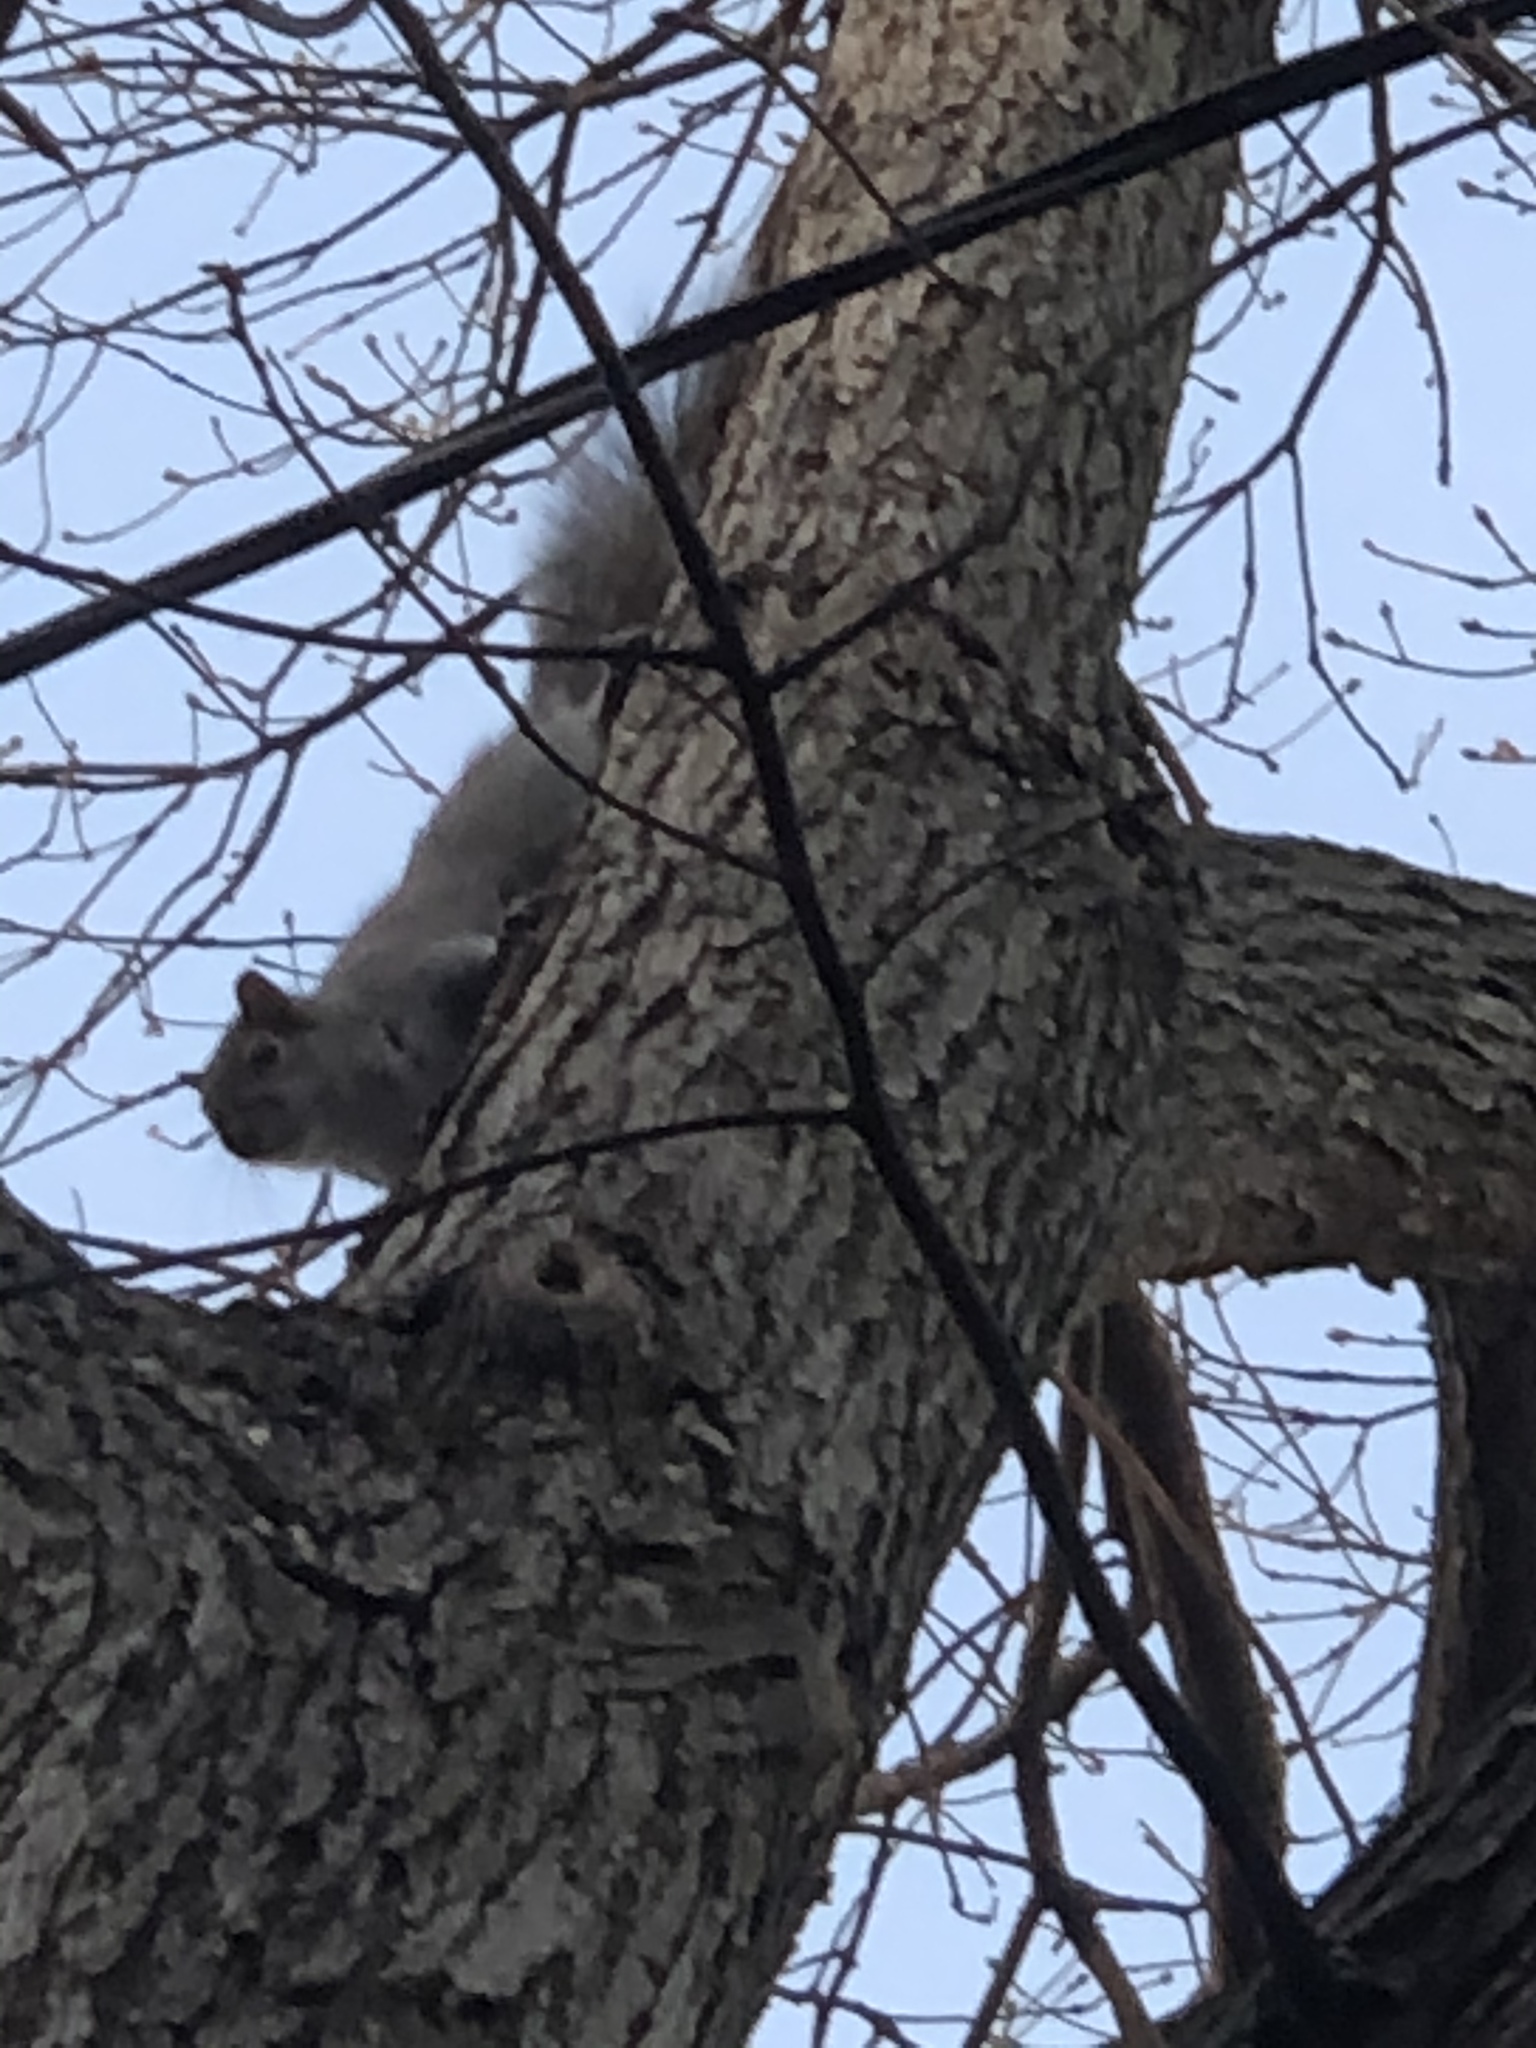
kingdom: Animalia
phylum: Chordata
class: Mammalia
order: Rodentia
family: Sciuridae
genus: Sciurus
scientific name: Sciurus carolinensis
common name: Eastern gray squirrel
